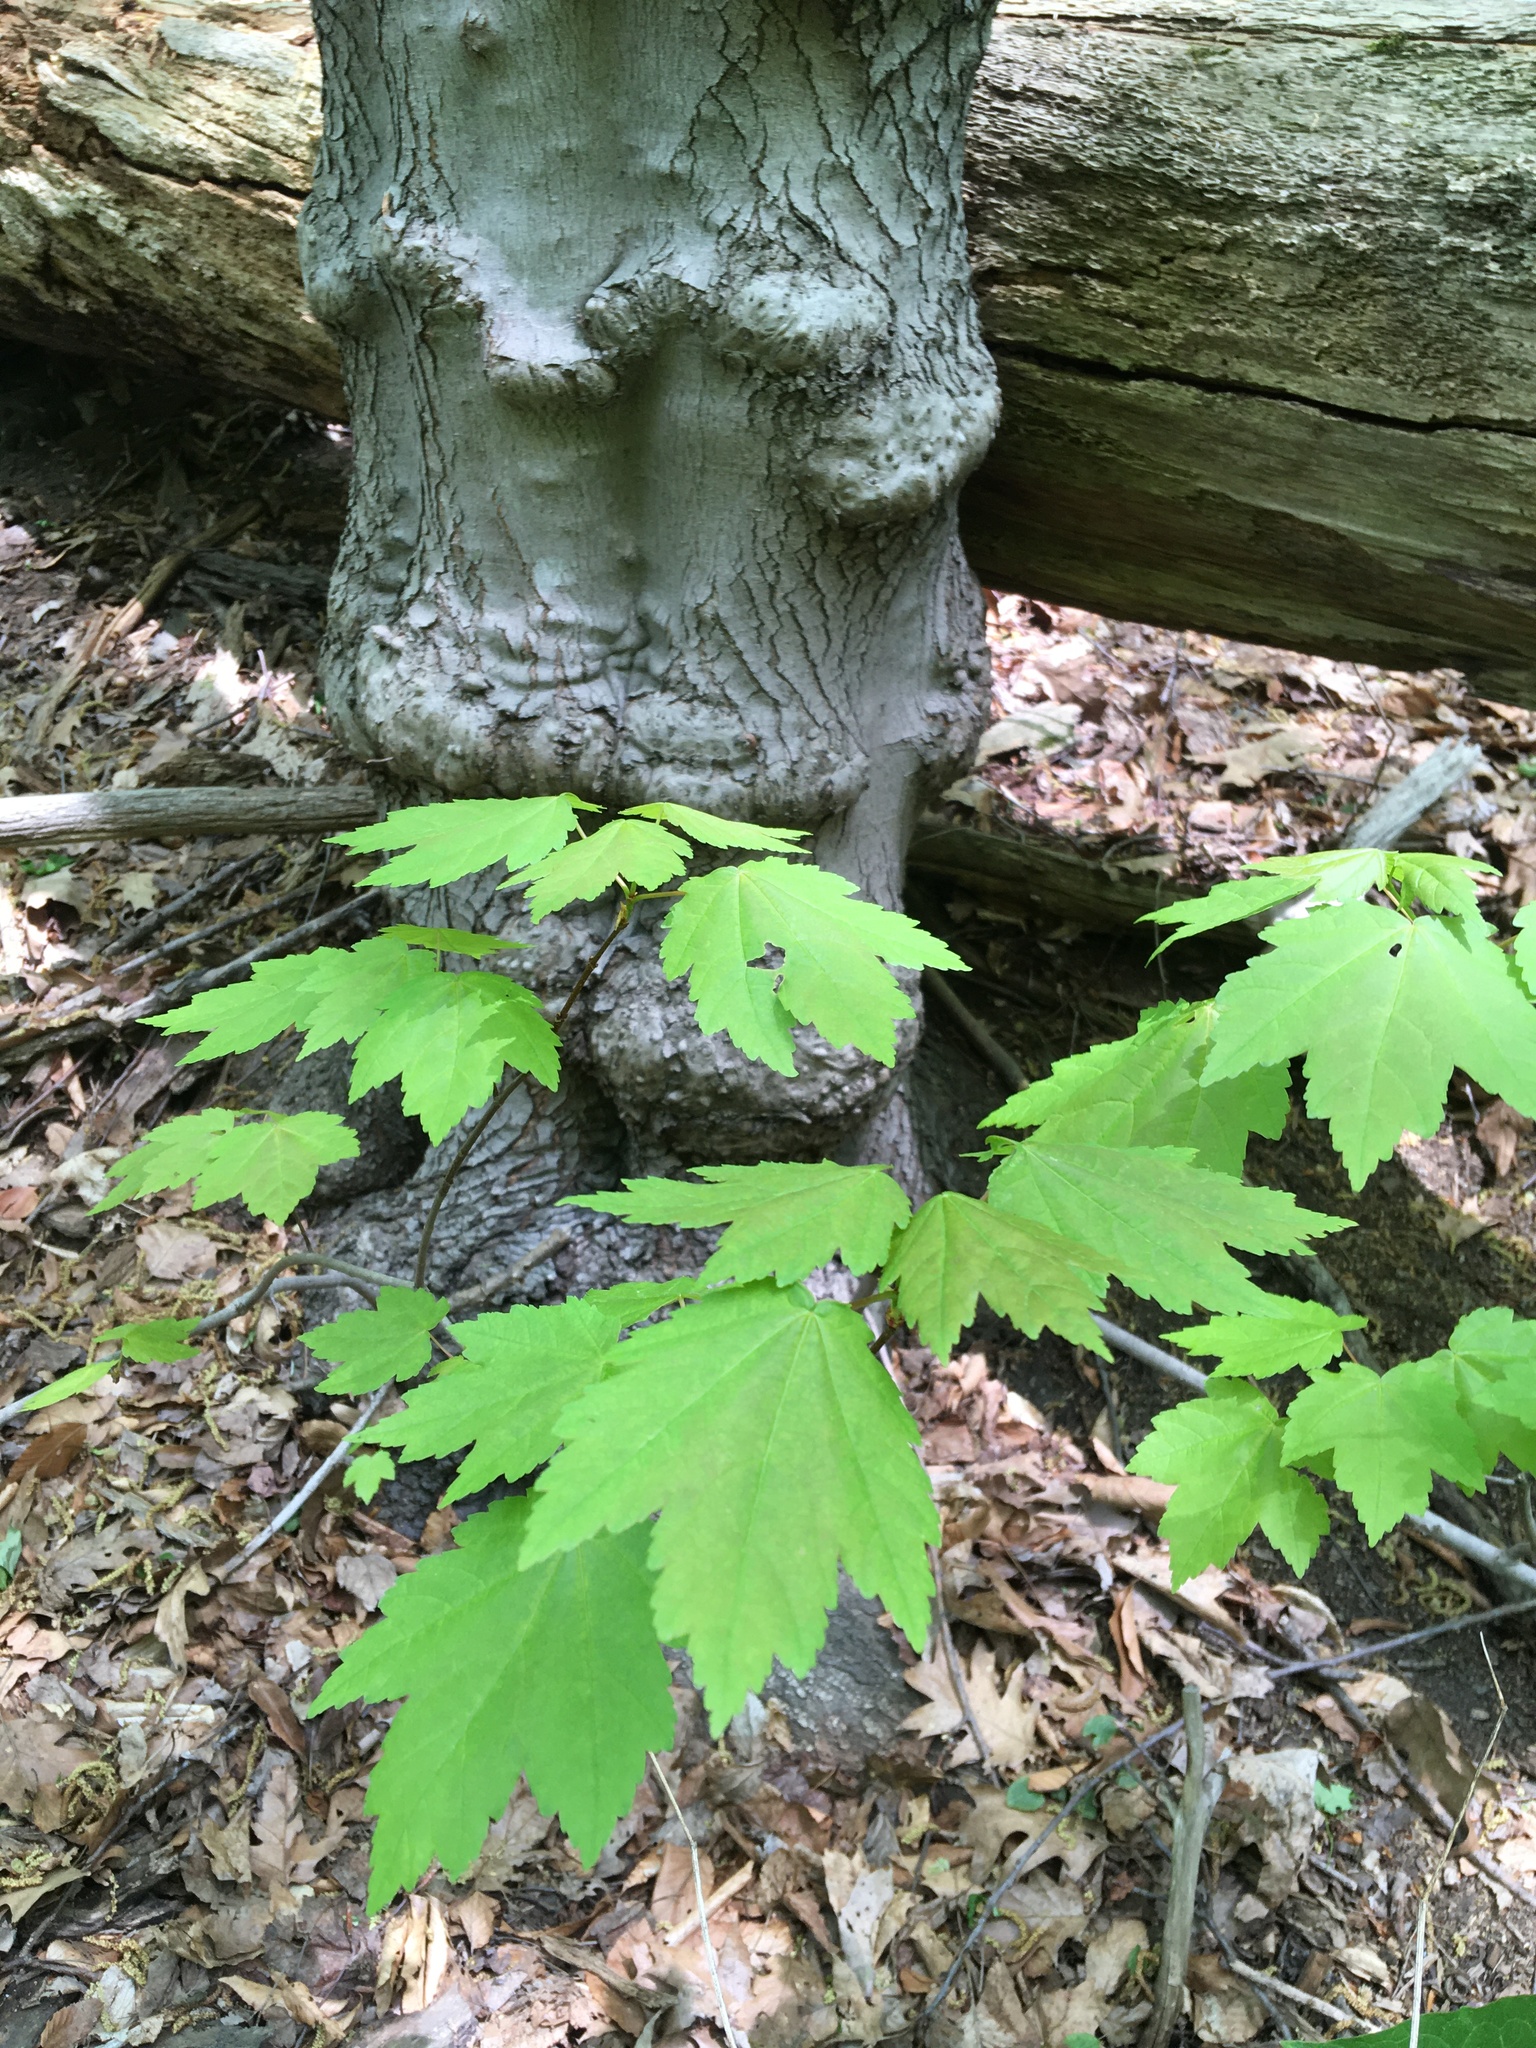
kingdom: Plantae
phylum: Tracheophyta
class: Magnoliopsida
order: Sapindales
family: Sapindaceae
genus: Acer
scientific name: Acer rubrum
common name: Red maple
